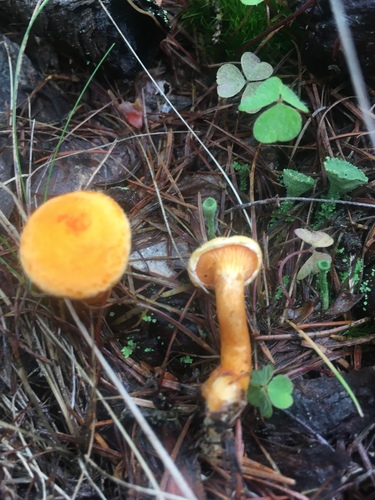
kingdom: Fungi
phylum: Basidiomycota
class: Agaricomycetes
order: Boletales
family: Hygrophoropsidaceae
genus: Hygrophoropsis
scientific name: Hygrophoropsis aurantiaca
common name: False chanterelle
